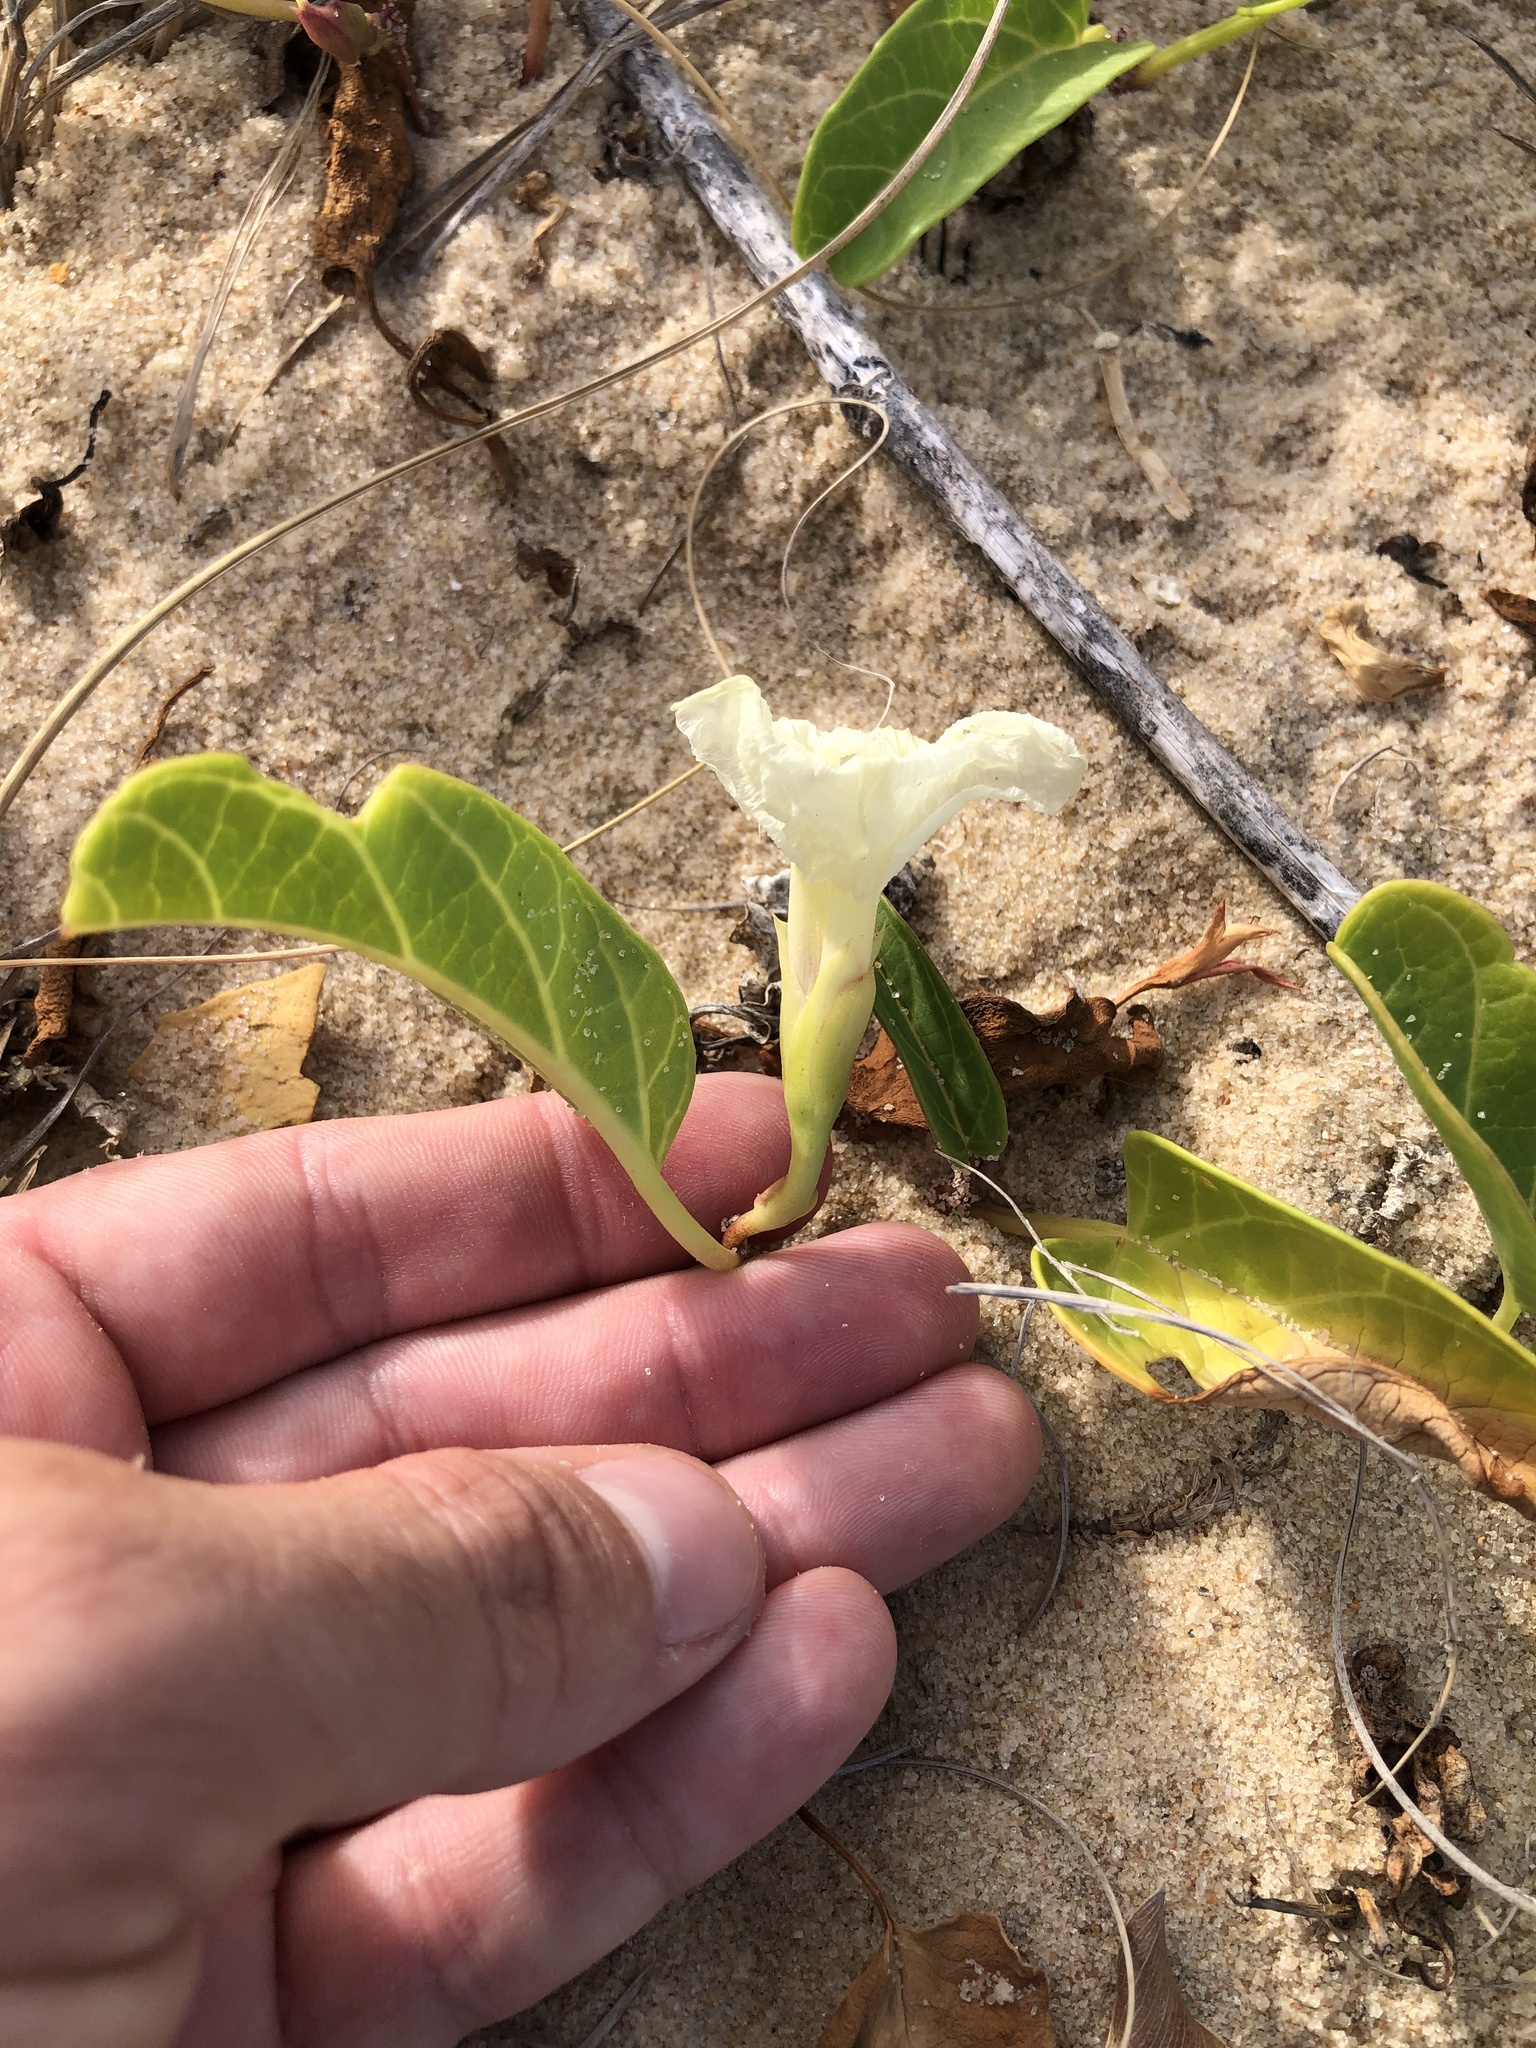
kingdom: Plantae
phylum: Tracheophyta
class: Magnoliopsida
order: Solanales
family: Convolvulaceae
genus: Ipomoea
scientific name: Ipomoea imperati
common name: Fiddle-leaf morning-glory
